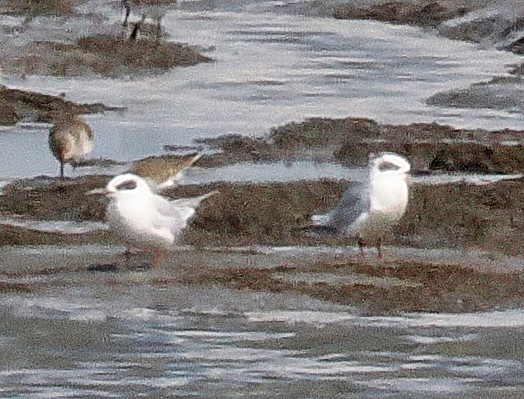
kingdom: Animalia
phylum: Chordata
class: Aves
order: Charadriiformes
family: Laridae
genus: Sterna
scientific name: Sterna forsteri
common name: Forster's tern
